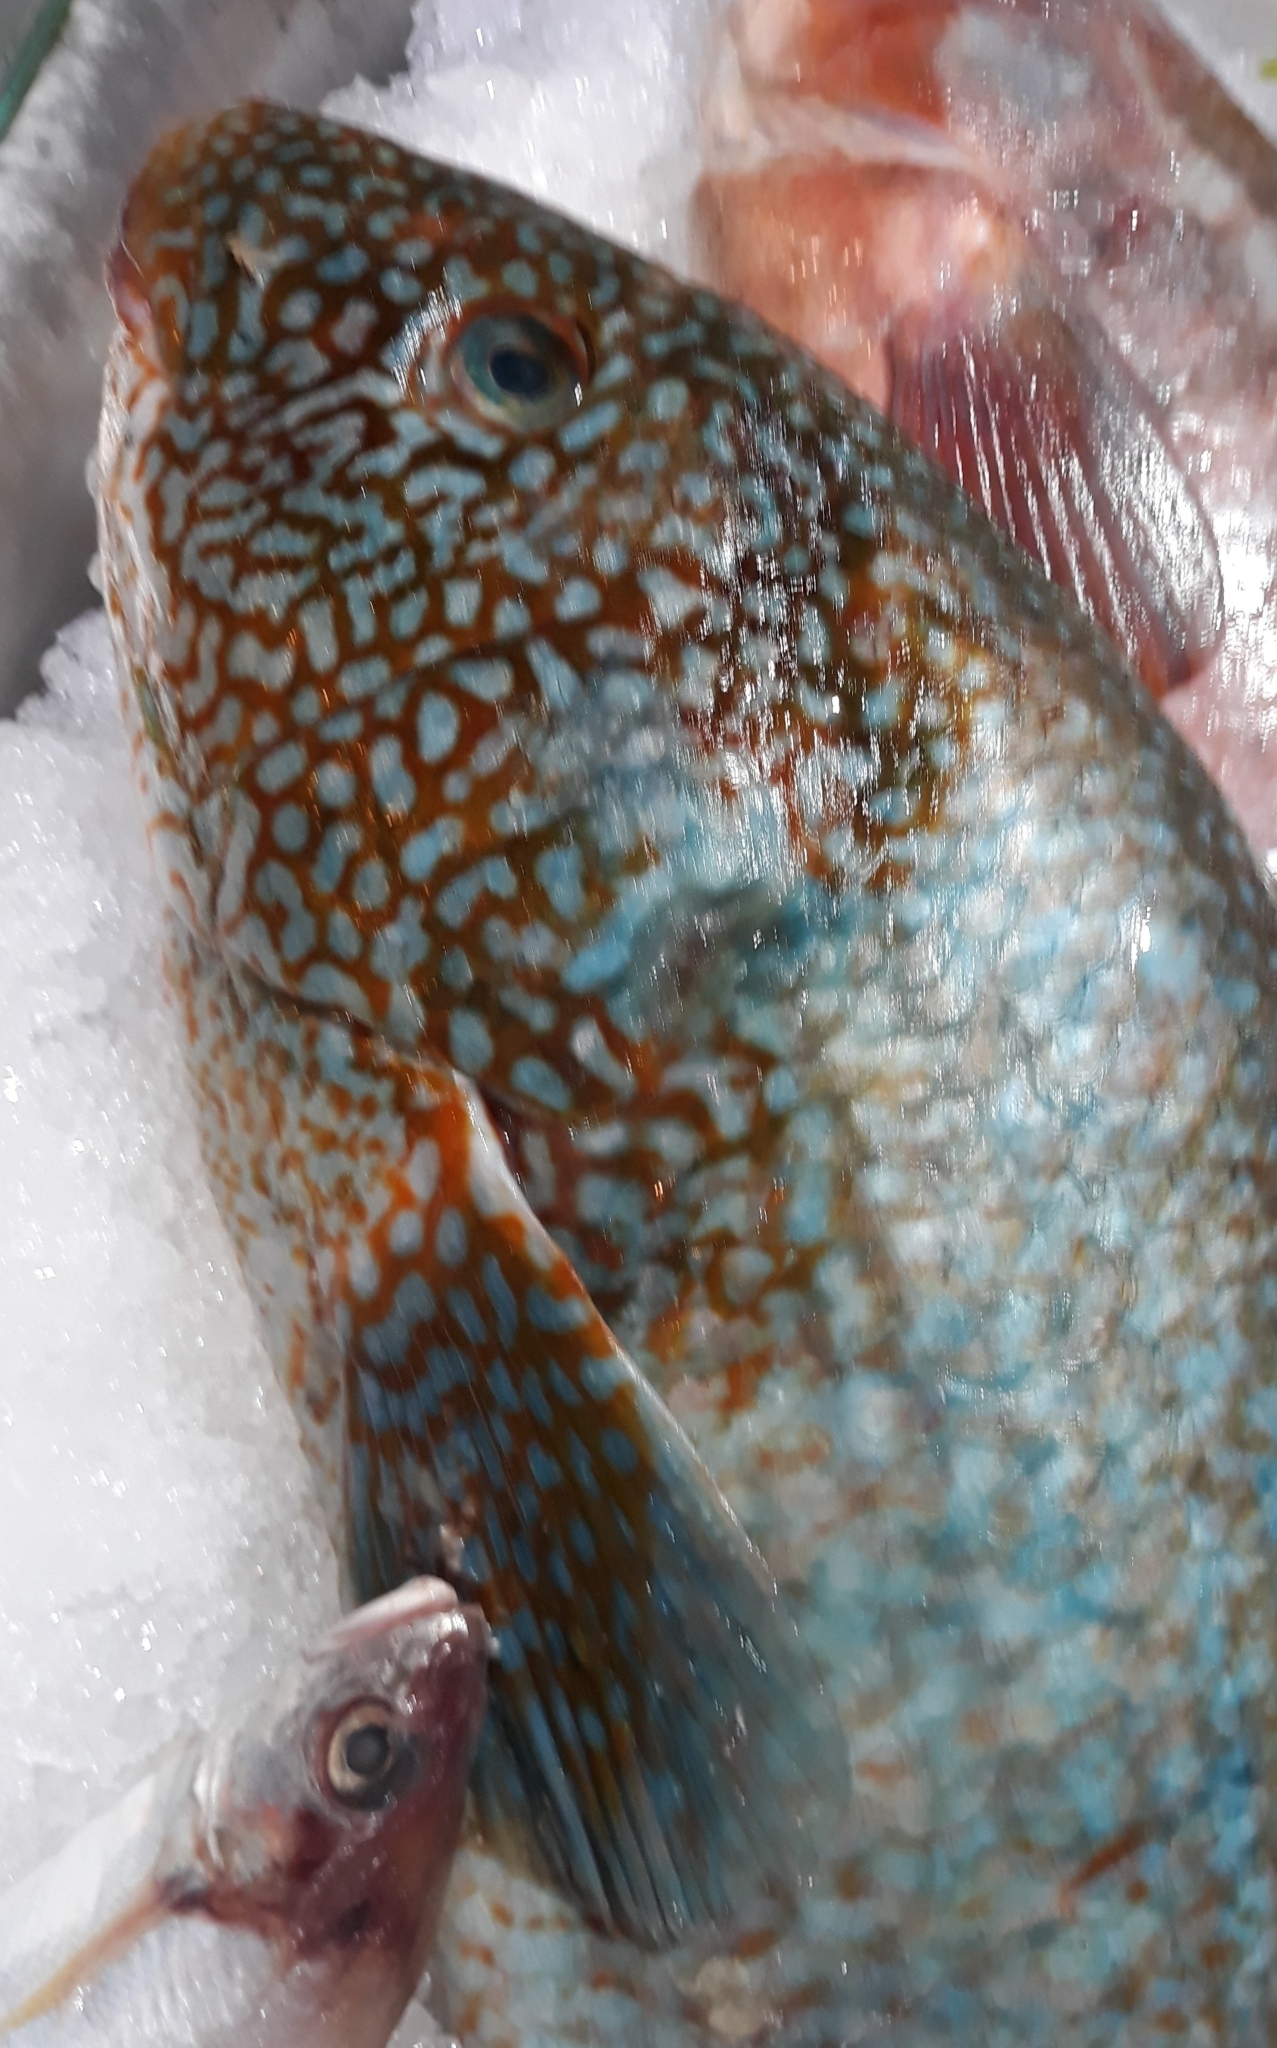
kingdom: Animalia
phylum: Chordata
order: Perciformes
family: Labridae
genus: Labrus
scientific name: Labrus bergylta
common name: Ballan wrasse
